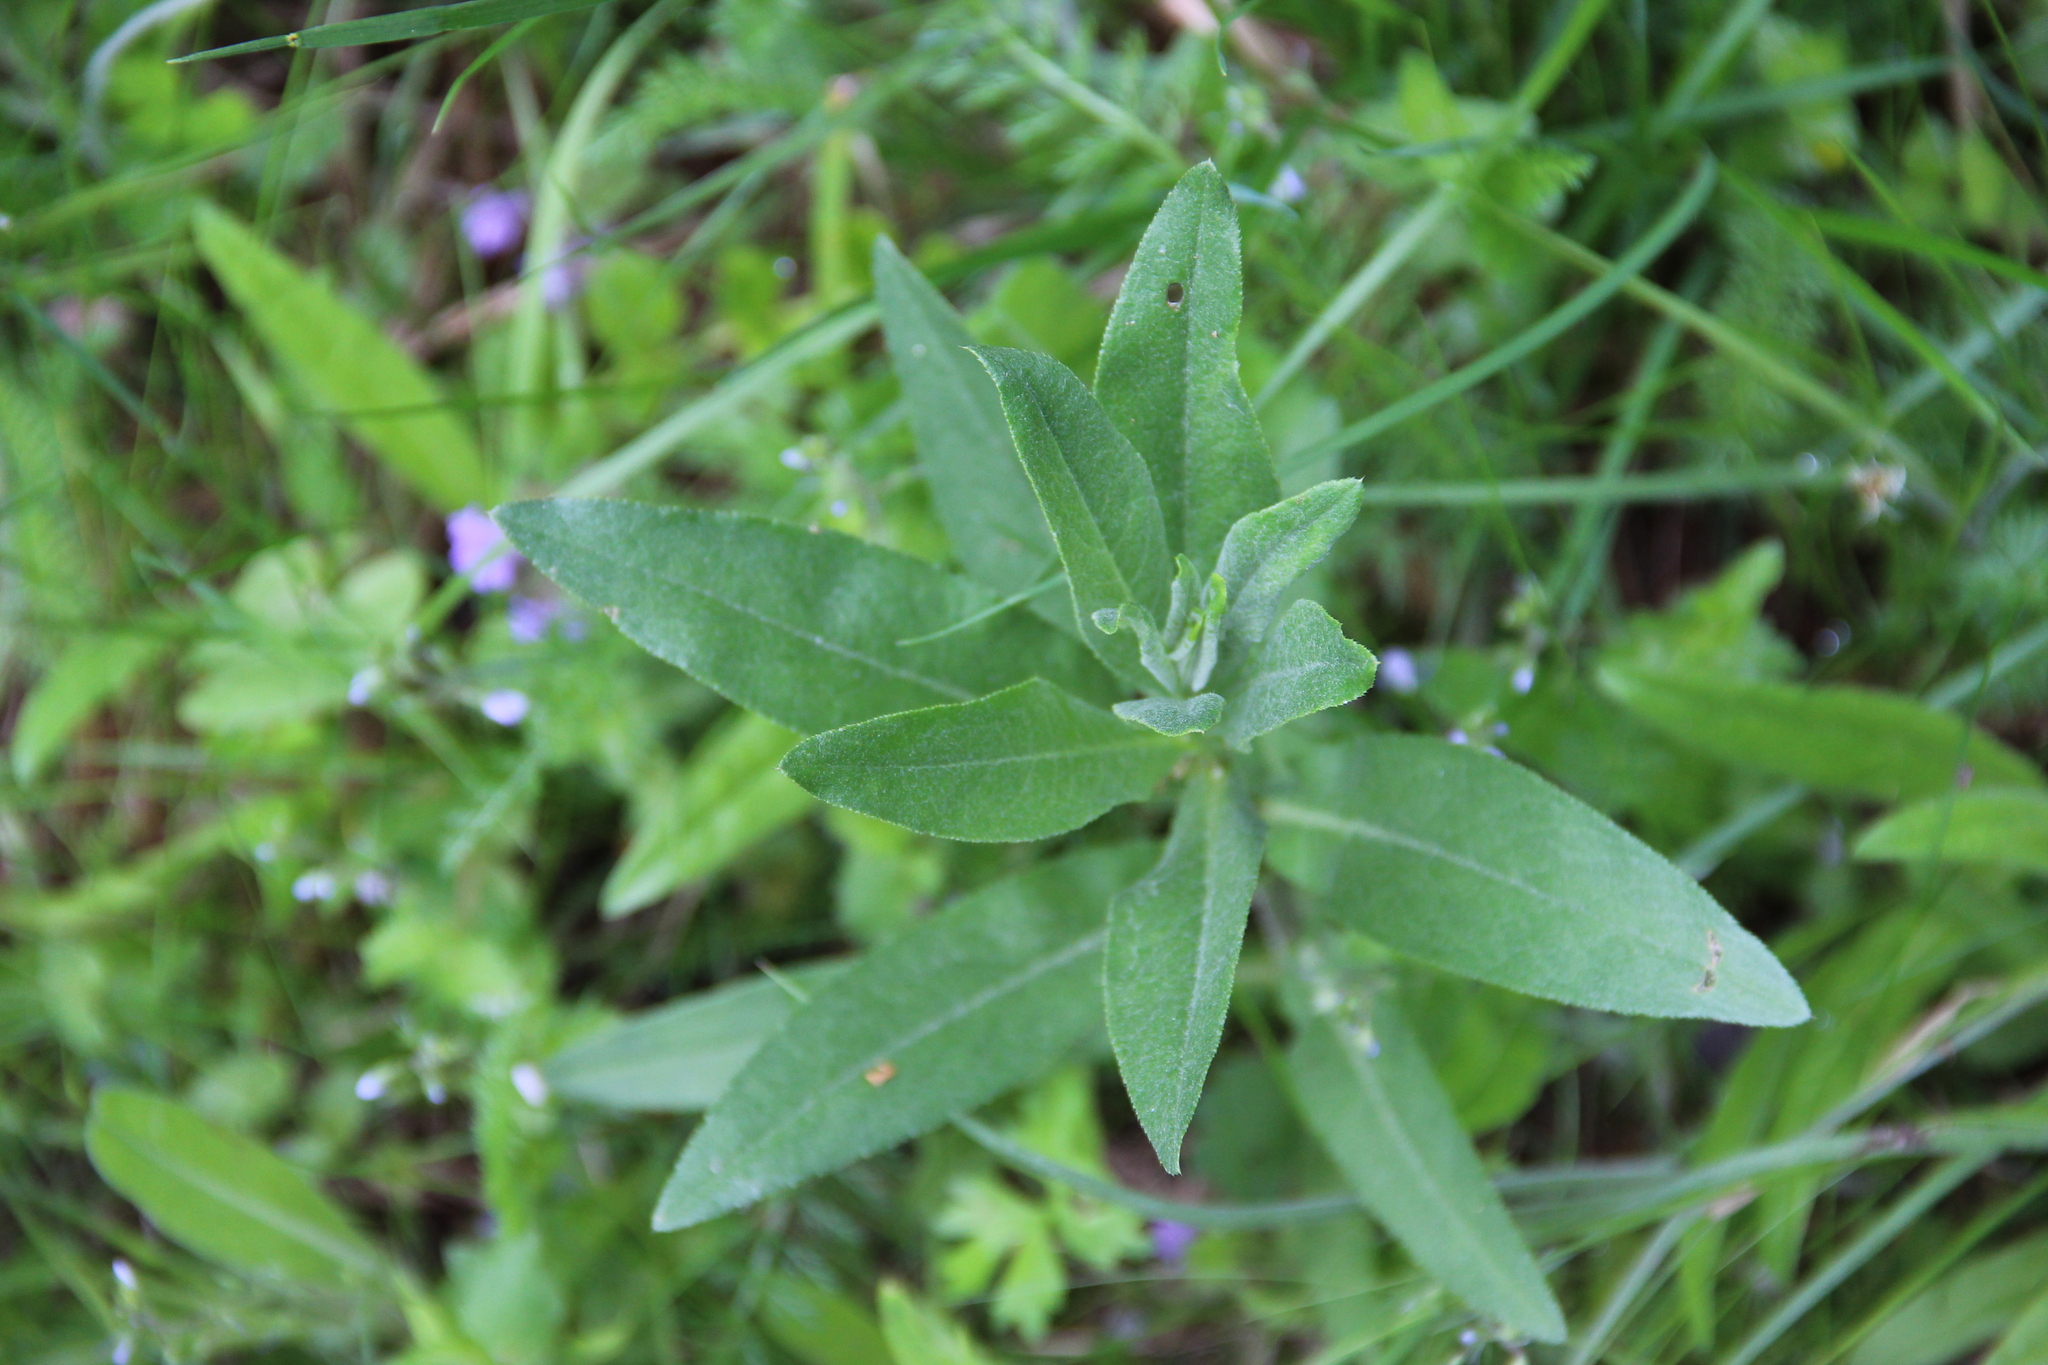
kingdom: Plantae
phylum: Tracheophyta
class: Magnoliopsida
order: Asterales
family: Asteraceae
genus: Cirsium
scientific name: Cirsium arvense
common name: Creeping thistle
